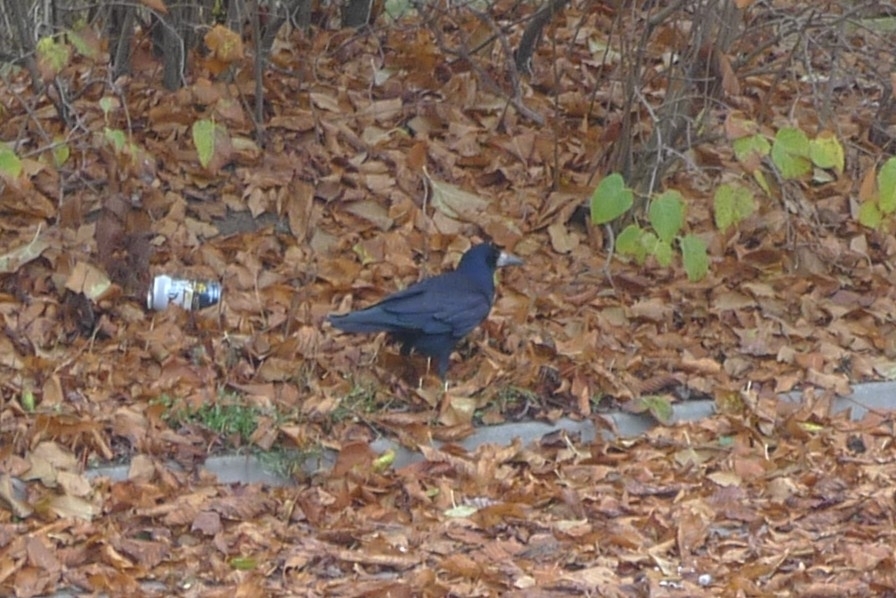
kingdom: Animalia
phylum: Chordata
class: Aves
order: Passeriformes
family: Corvidae
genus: Corvus
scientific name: Corvus frugilegus
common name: Rook
